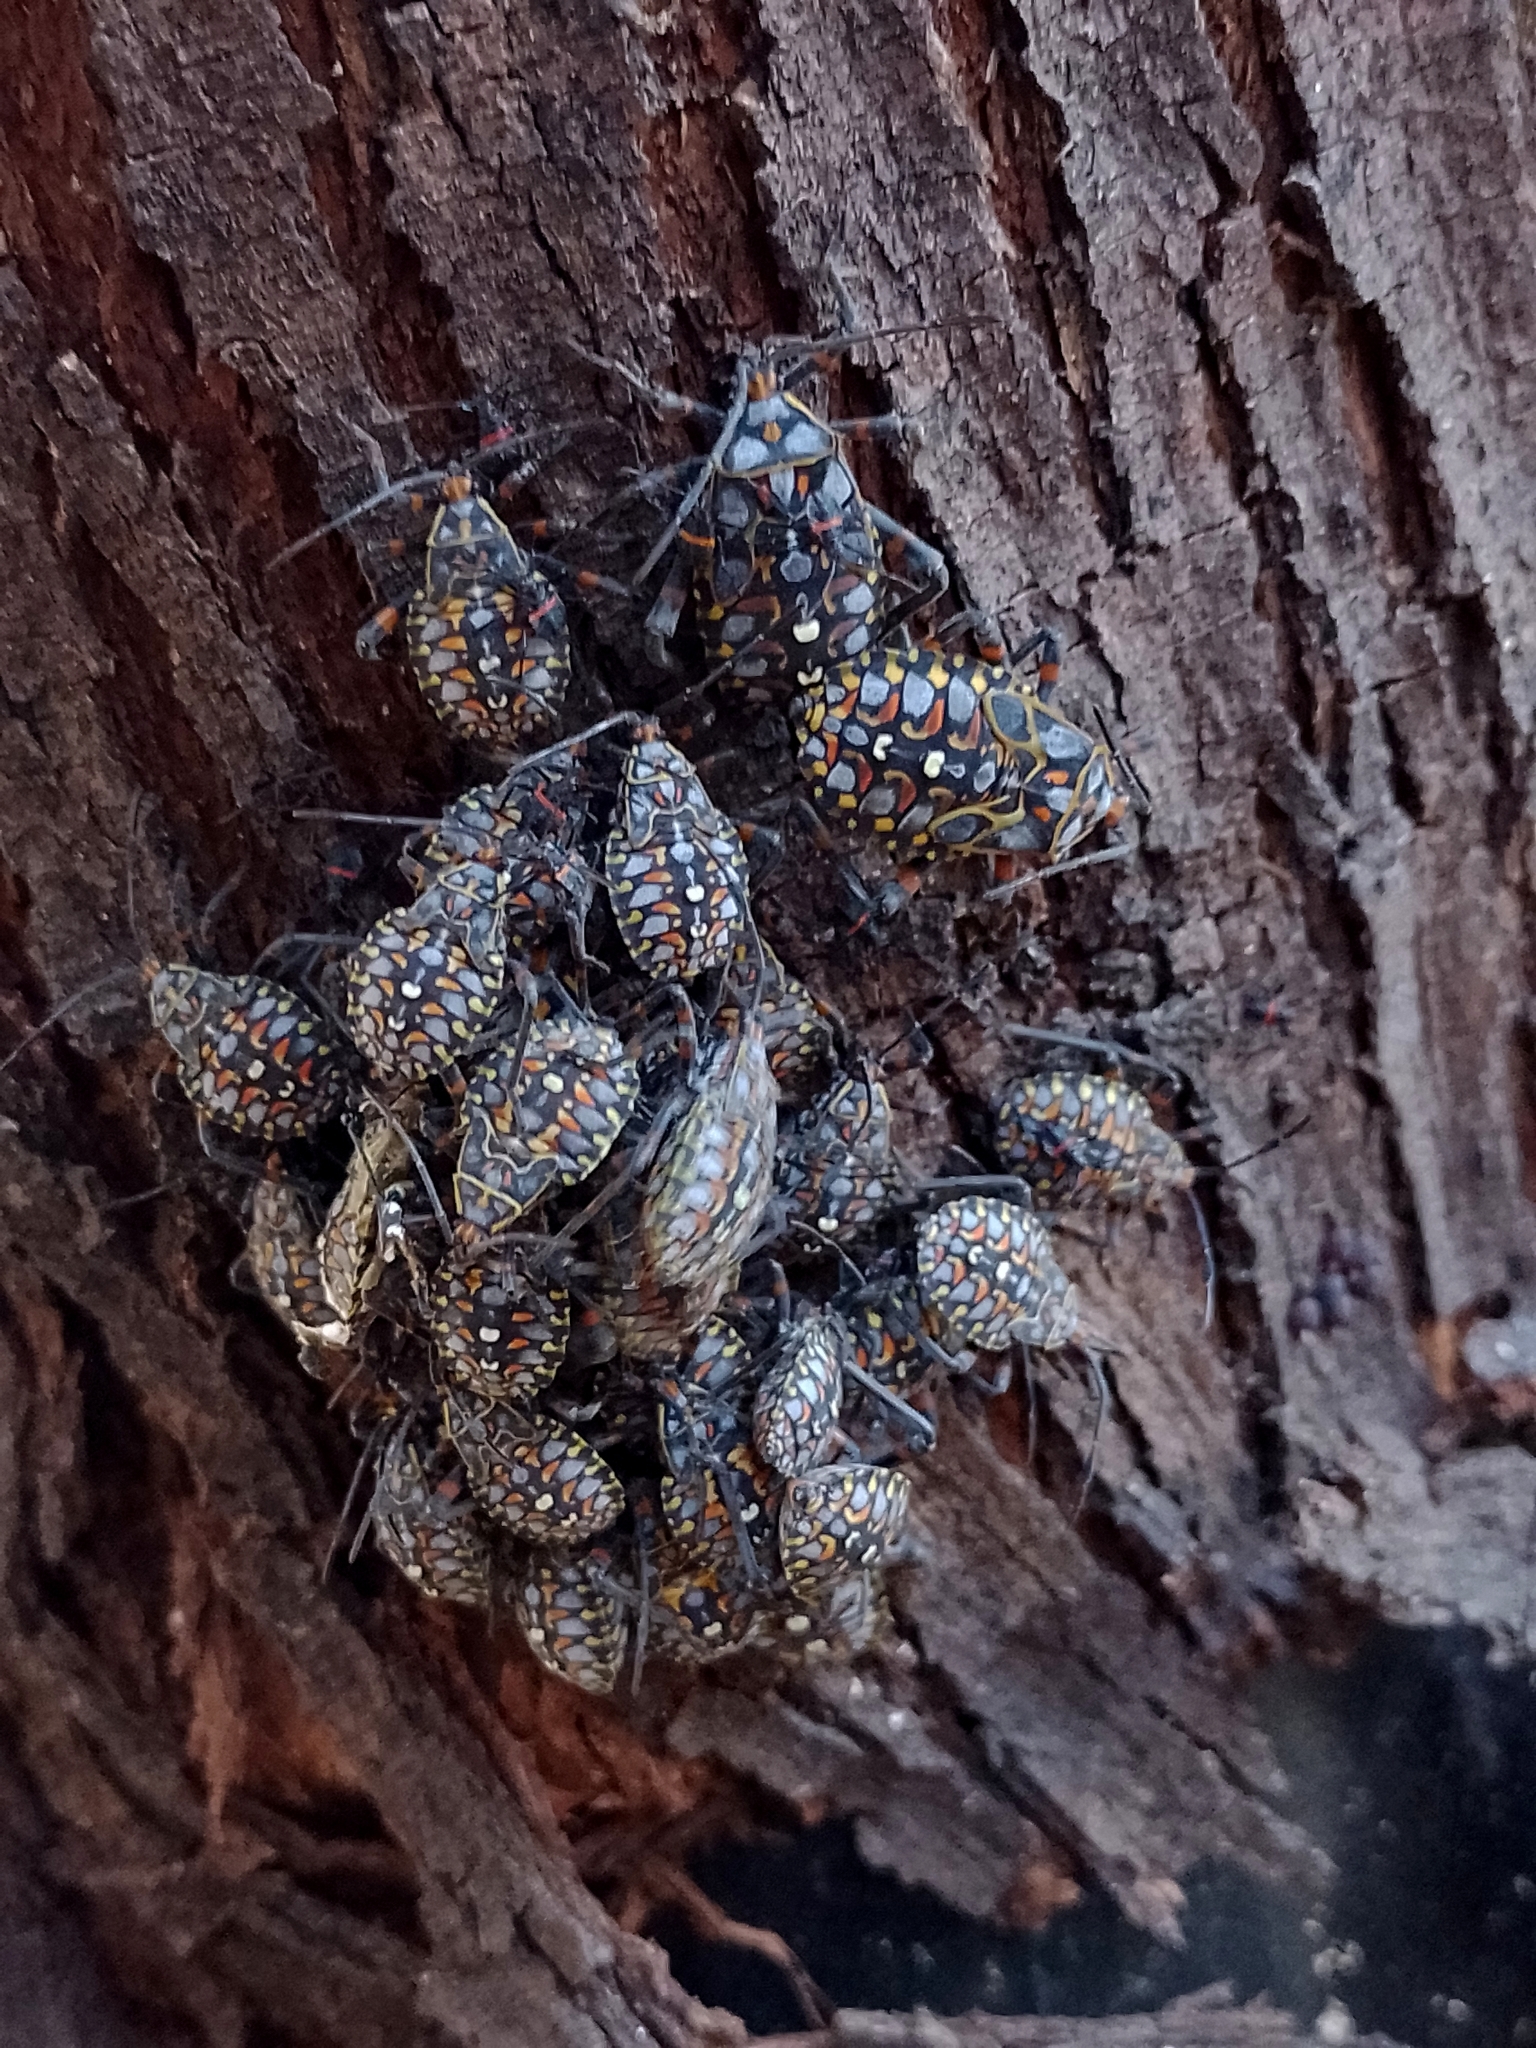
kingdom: Animalia
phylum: Arthropoda
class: Insecta
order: Hemiptera
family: Coreidae
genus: Pachylis
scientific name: Pachylis argentinus
